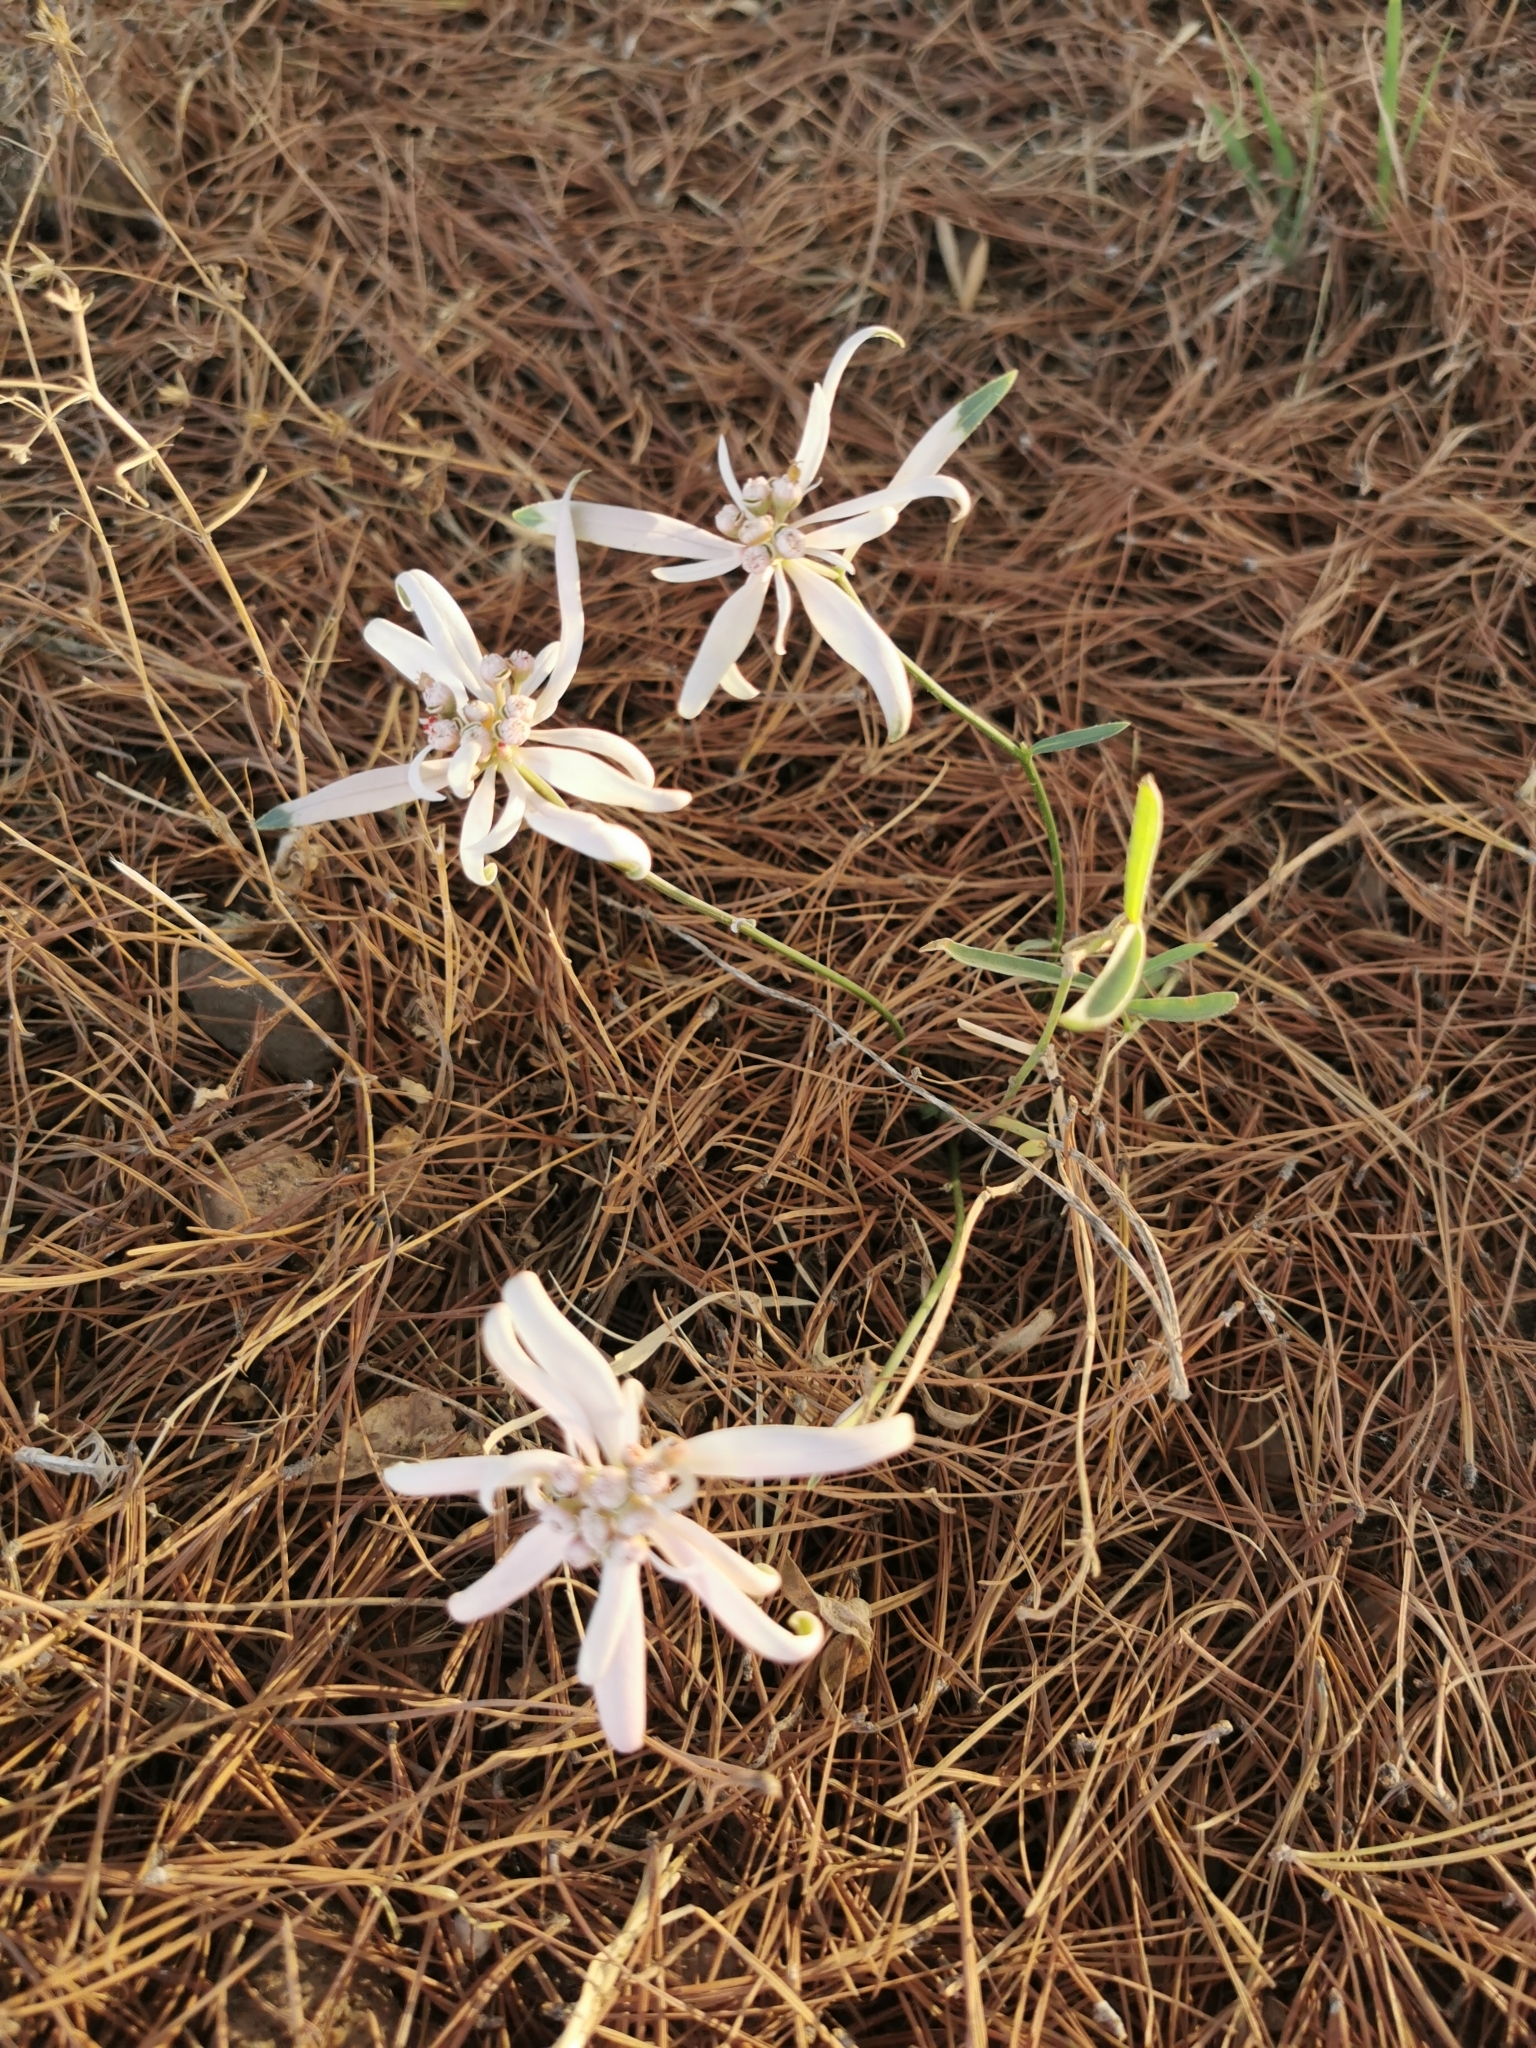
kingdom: Plantae
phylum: Tracheophyta
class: Magnoliopsida
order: Malpighiales
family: Euphorbiaceae
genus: Euphorbia
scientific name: Euphorbia radians
